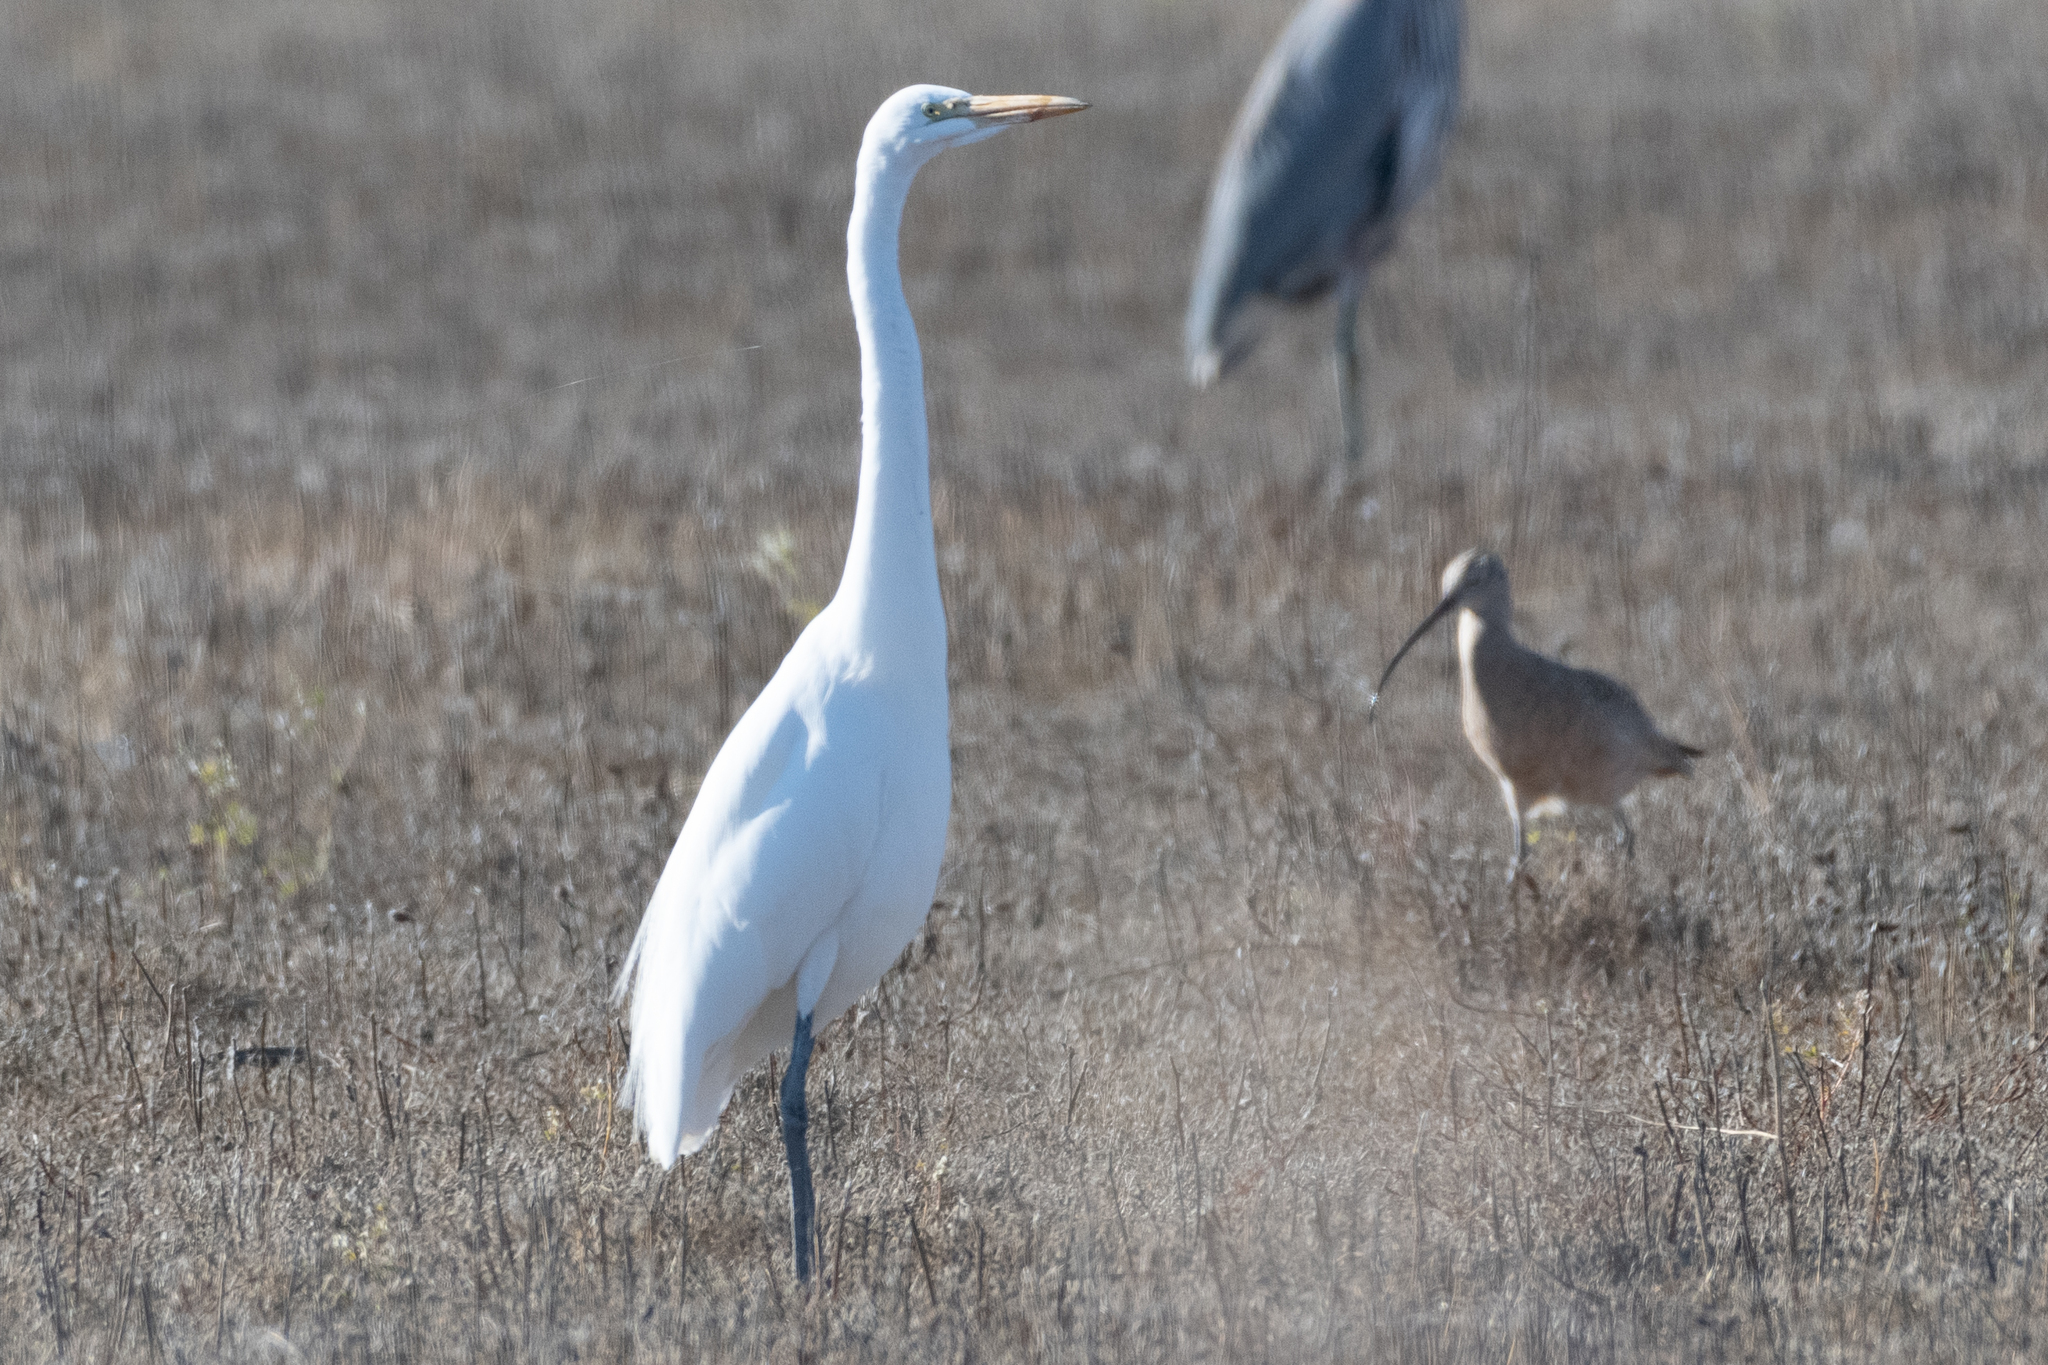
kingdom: Animalia
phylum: Chordata
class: Aves
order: Pelecaniformes
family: Ardeidae
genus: Ardea
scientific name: Ardea alba
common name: Great egret
